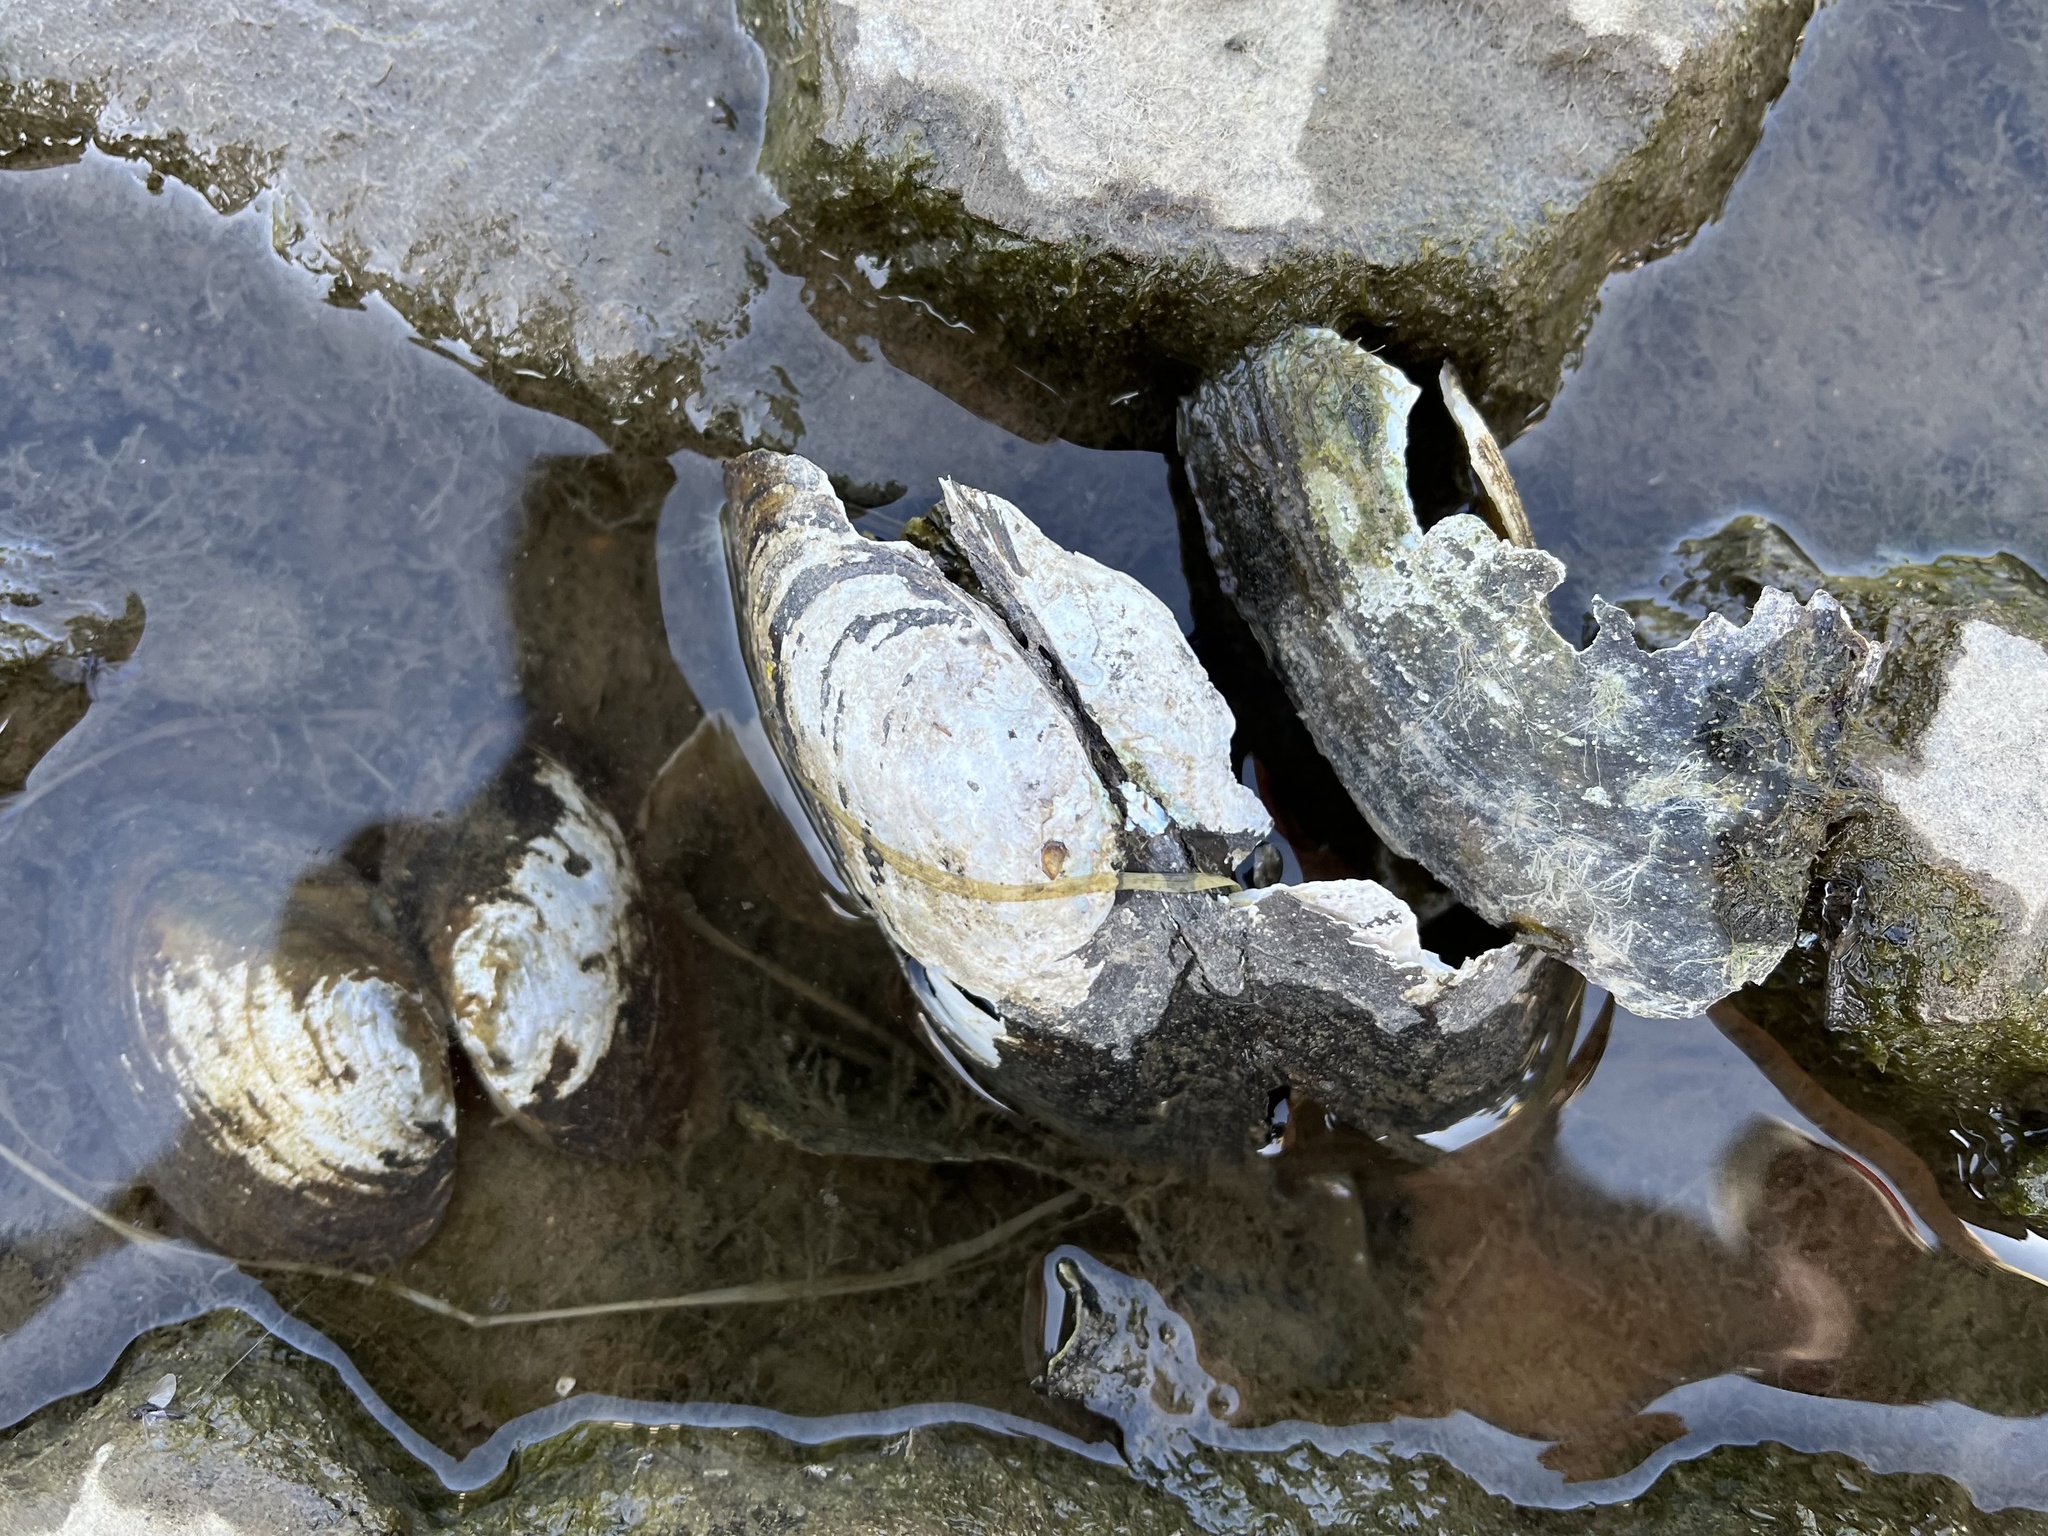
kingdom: Animalia
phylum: Mollusca
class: Bivalvia
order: Unionida
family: Unionidae
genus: Anodonta
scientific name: Anodonta anatina
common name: Duck mussel
